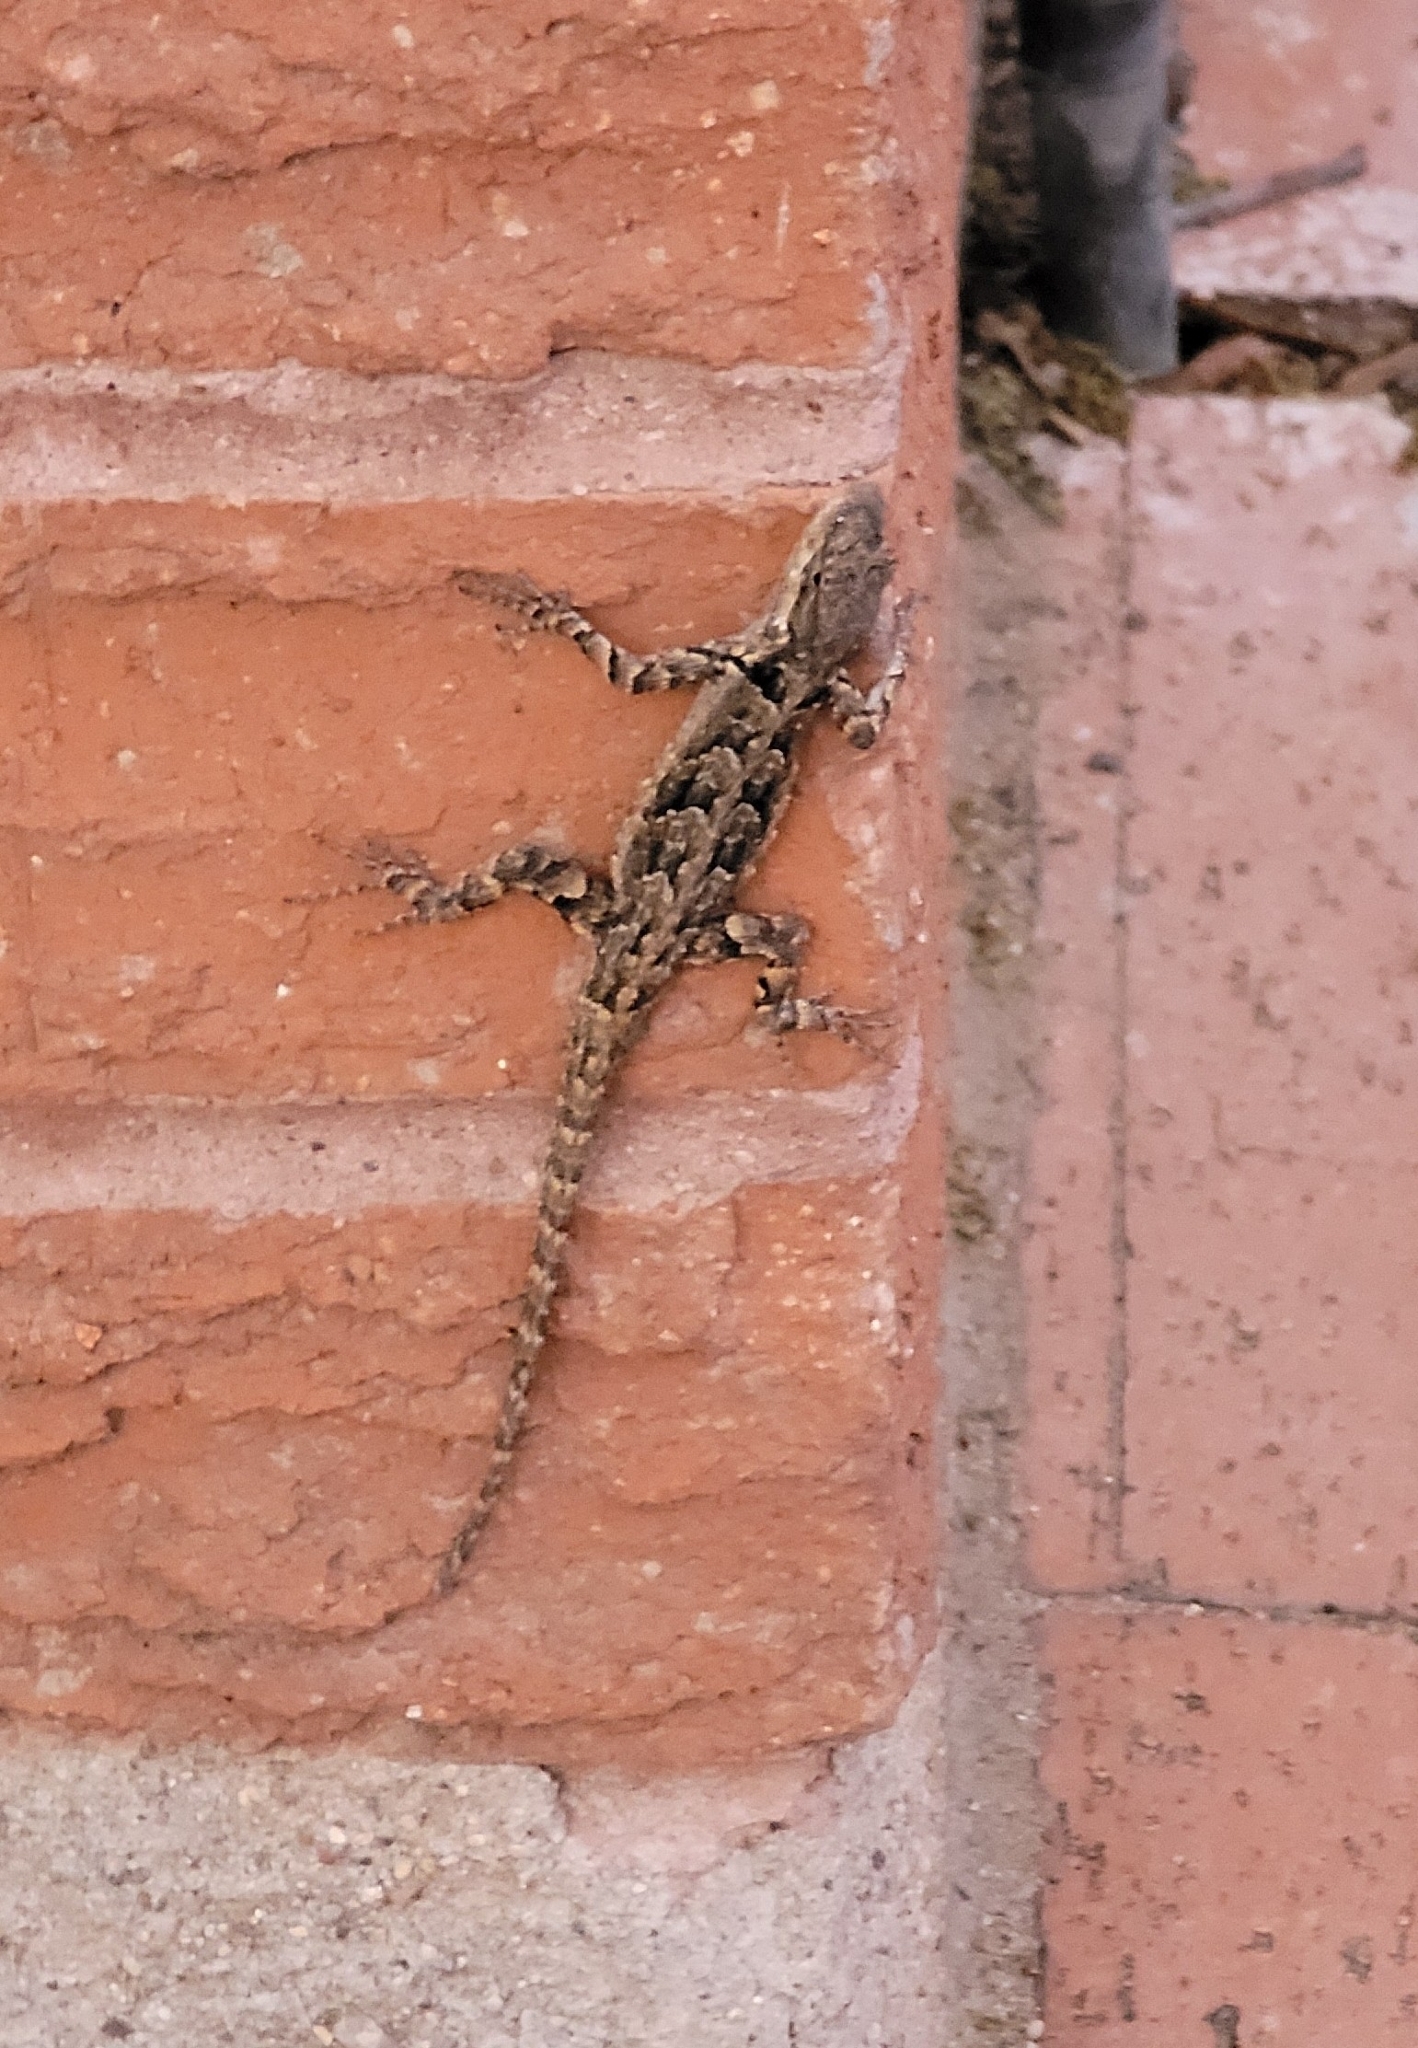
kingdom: Animalia
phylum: Chordata
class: Squamata
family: Phrynosomatidae
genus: Urosaurus
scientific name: Urosaurus ornatus
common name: Ornate tree lizard
